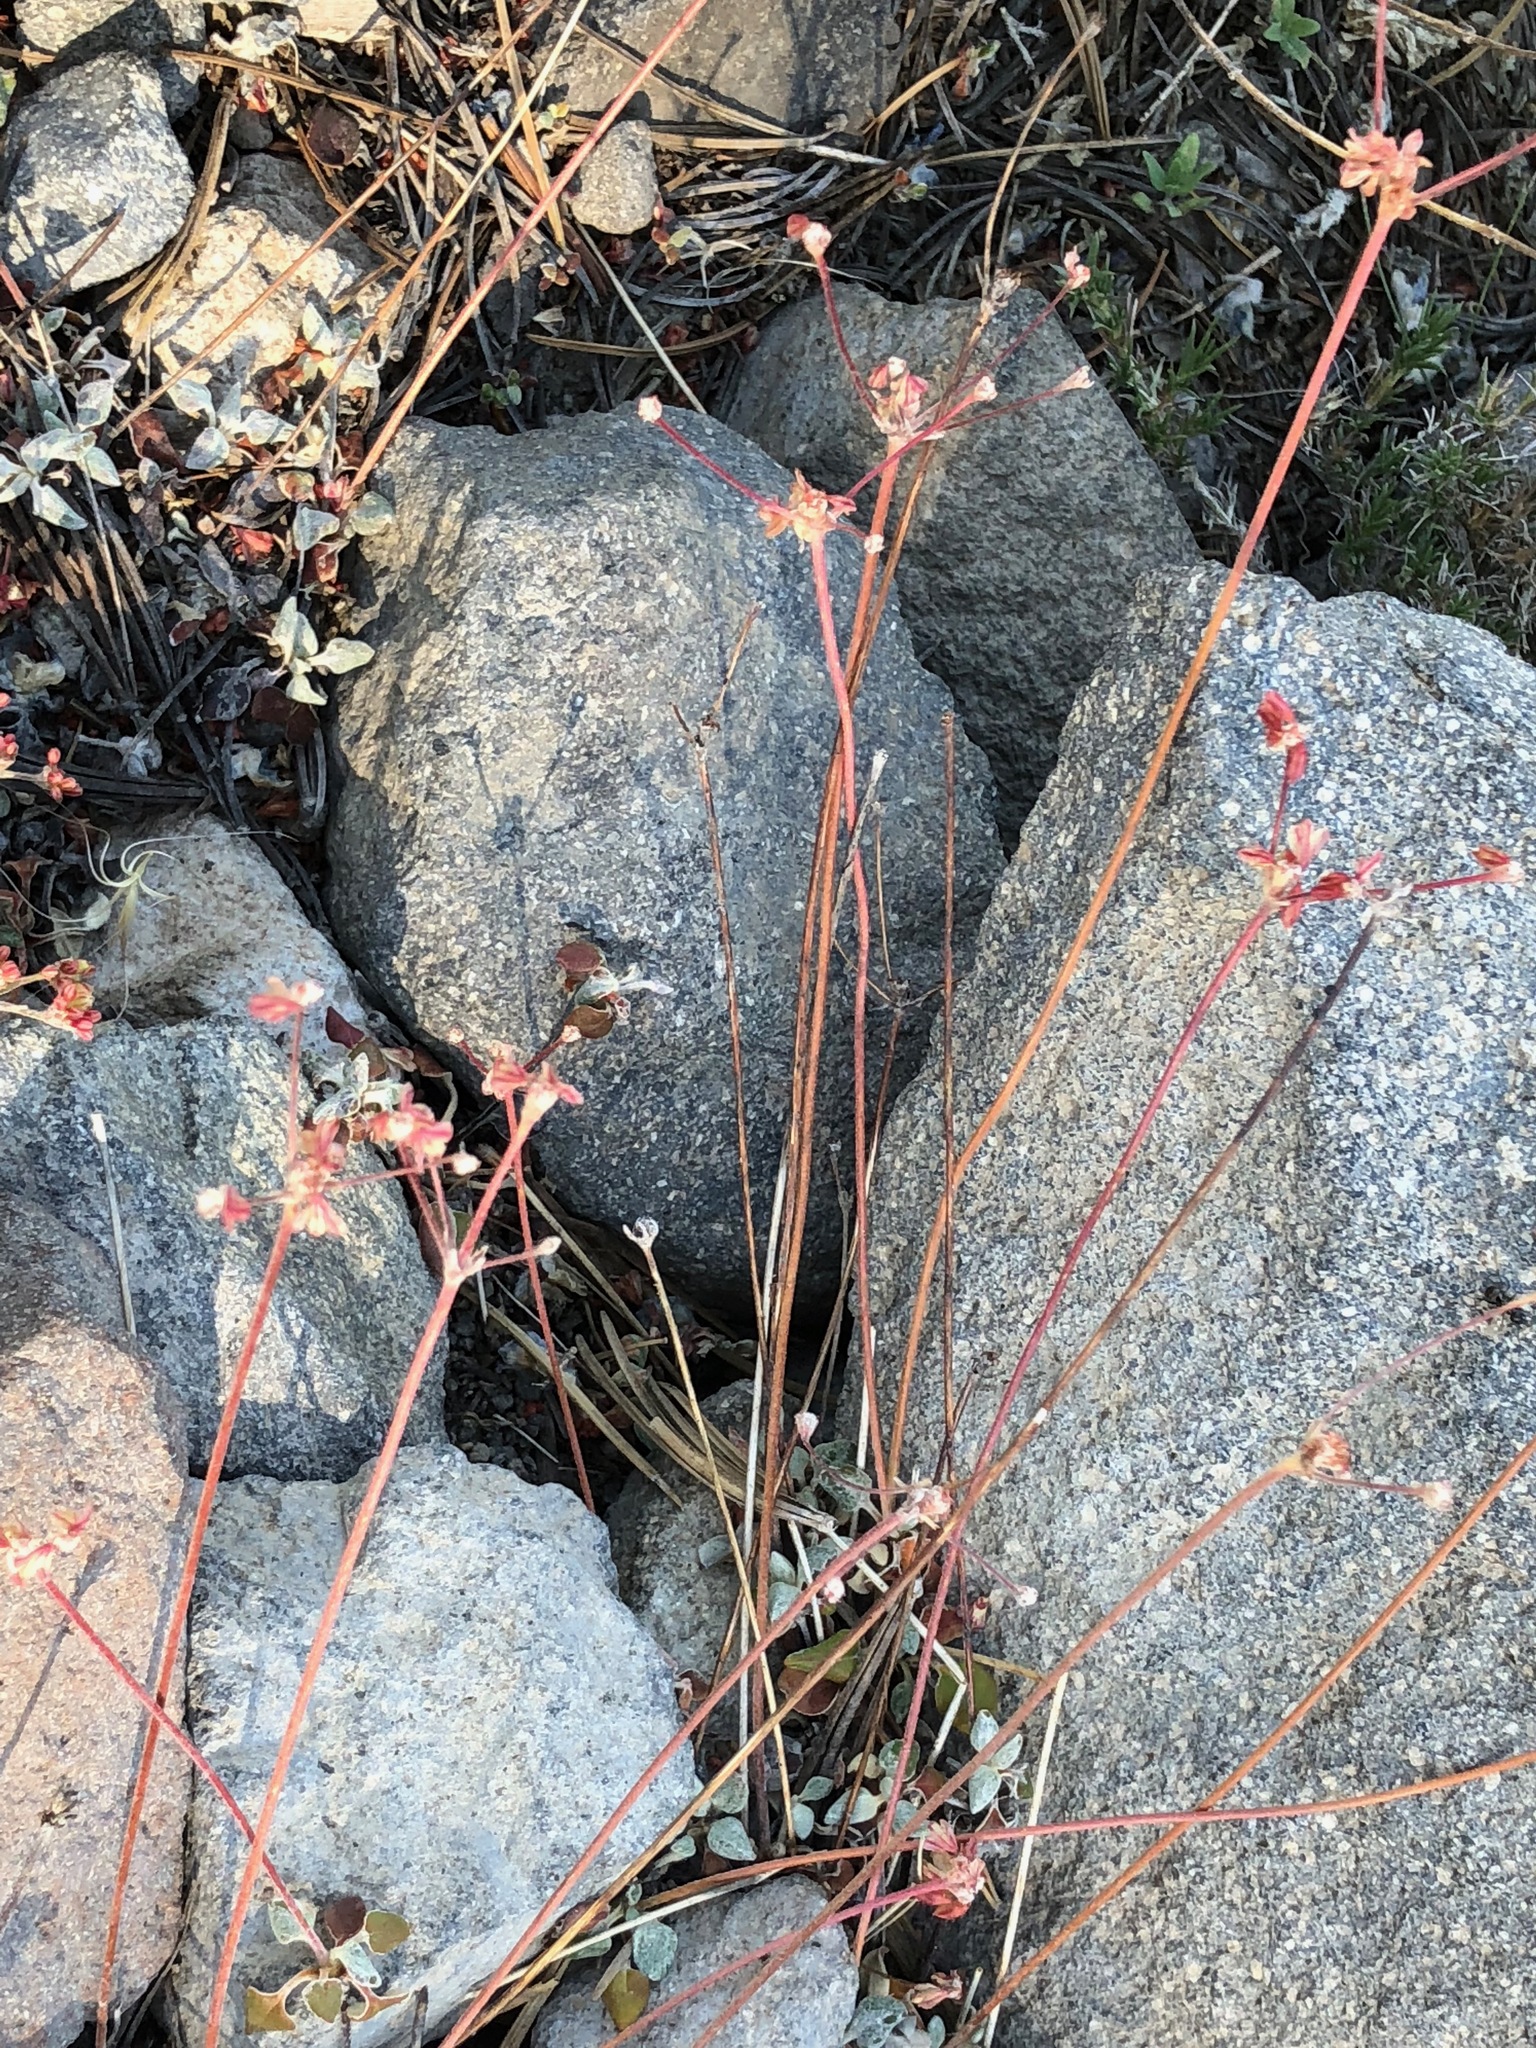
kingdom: Plantae
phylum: Tracheophyta
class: Magnoliopsida
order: Caryophyllales
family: Polygonaceae
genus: Eriogonum
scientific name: Eriogonum marifolium
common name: Marum-leaf wild buckwheat
